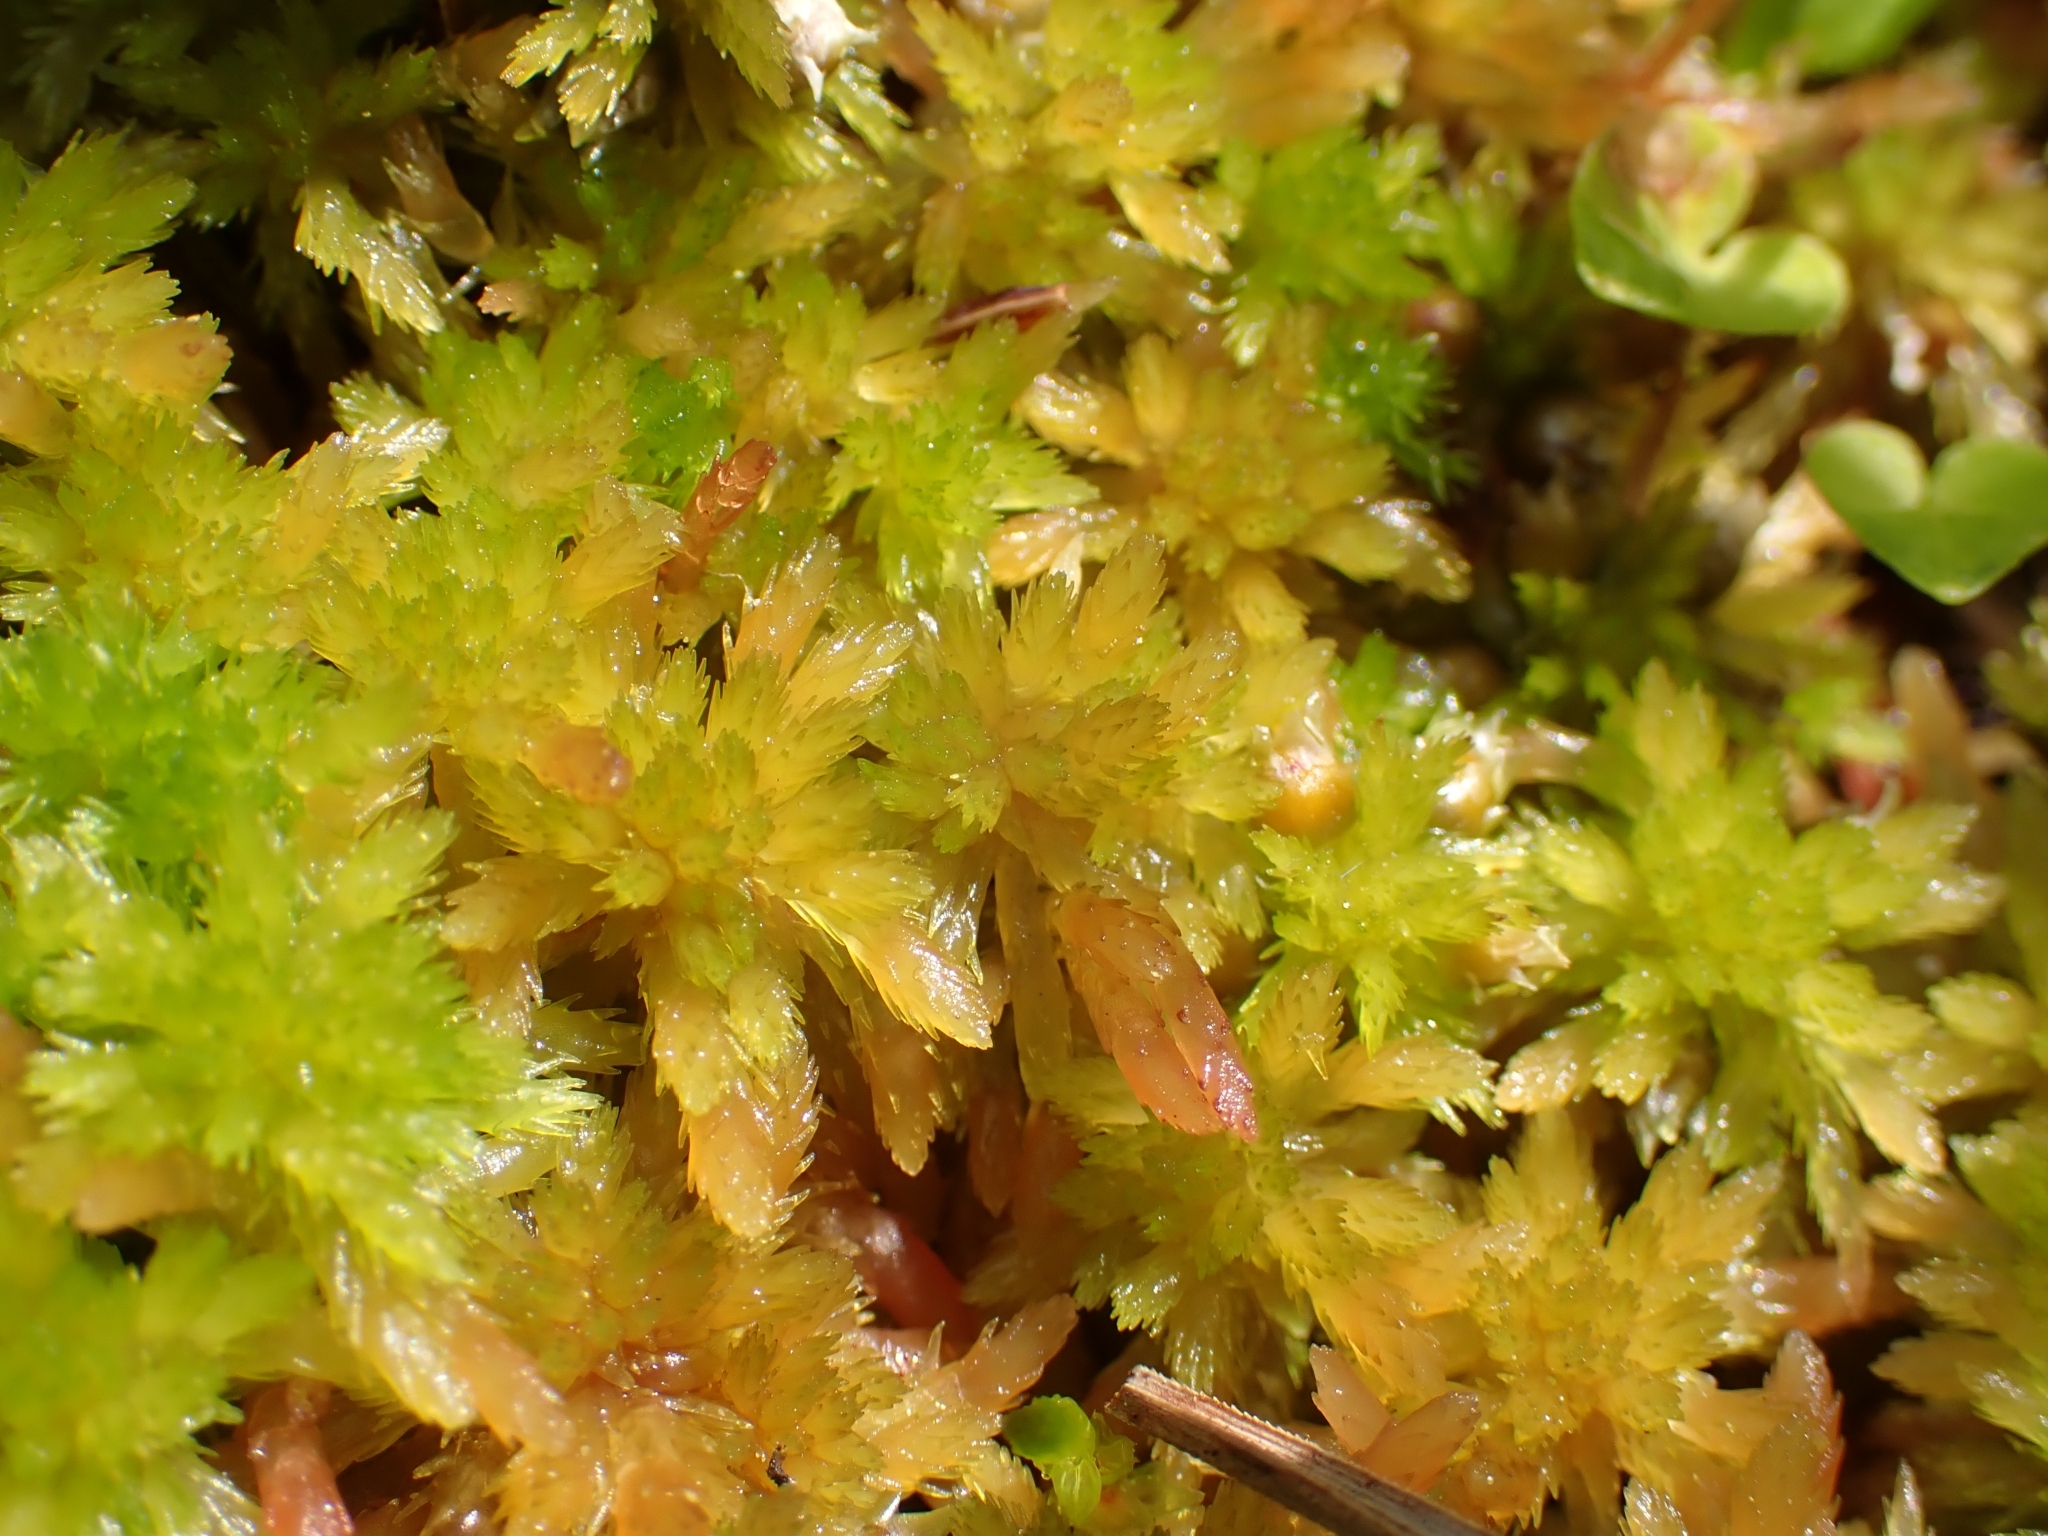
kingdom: Plantae
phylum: Bryophyta
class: Sphagnopsida
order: Sphagnales
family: Sphagnaceae
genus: Sphagnum
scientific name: Sphagnum subnitens
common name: Lustrous bog-moss
